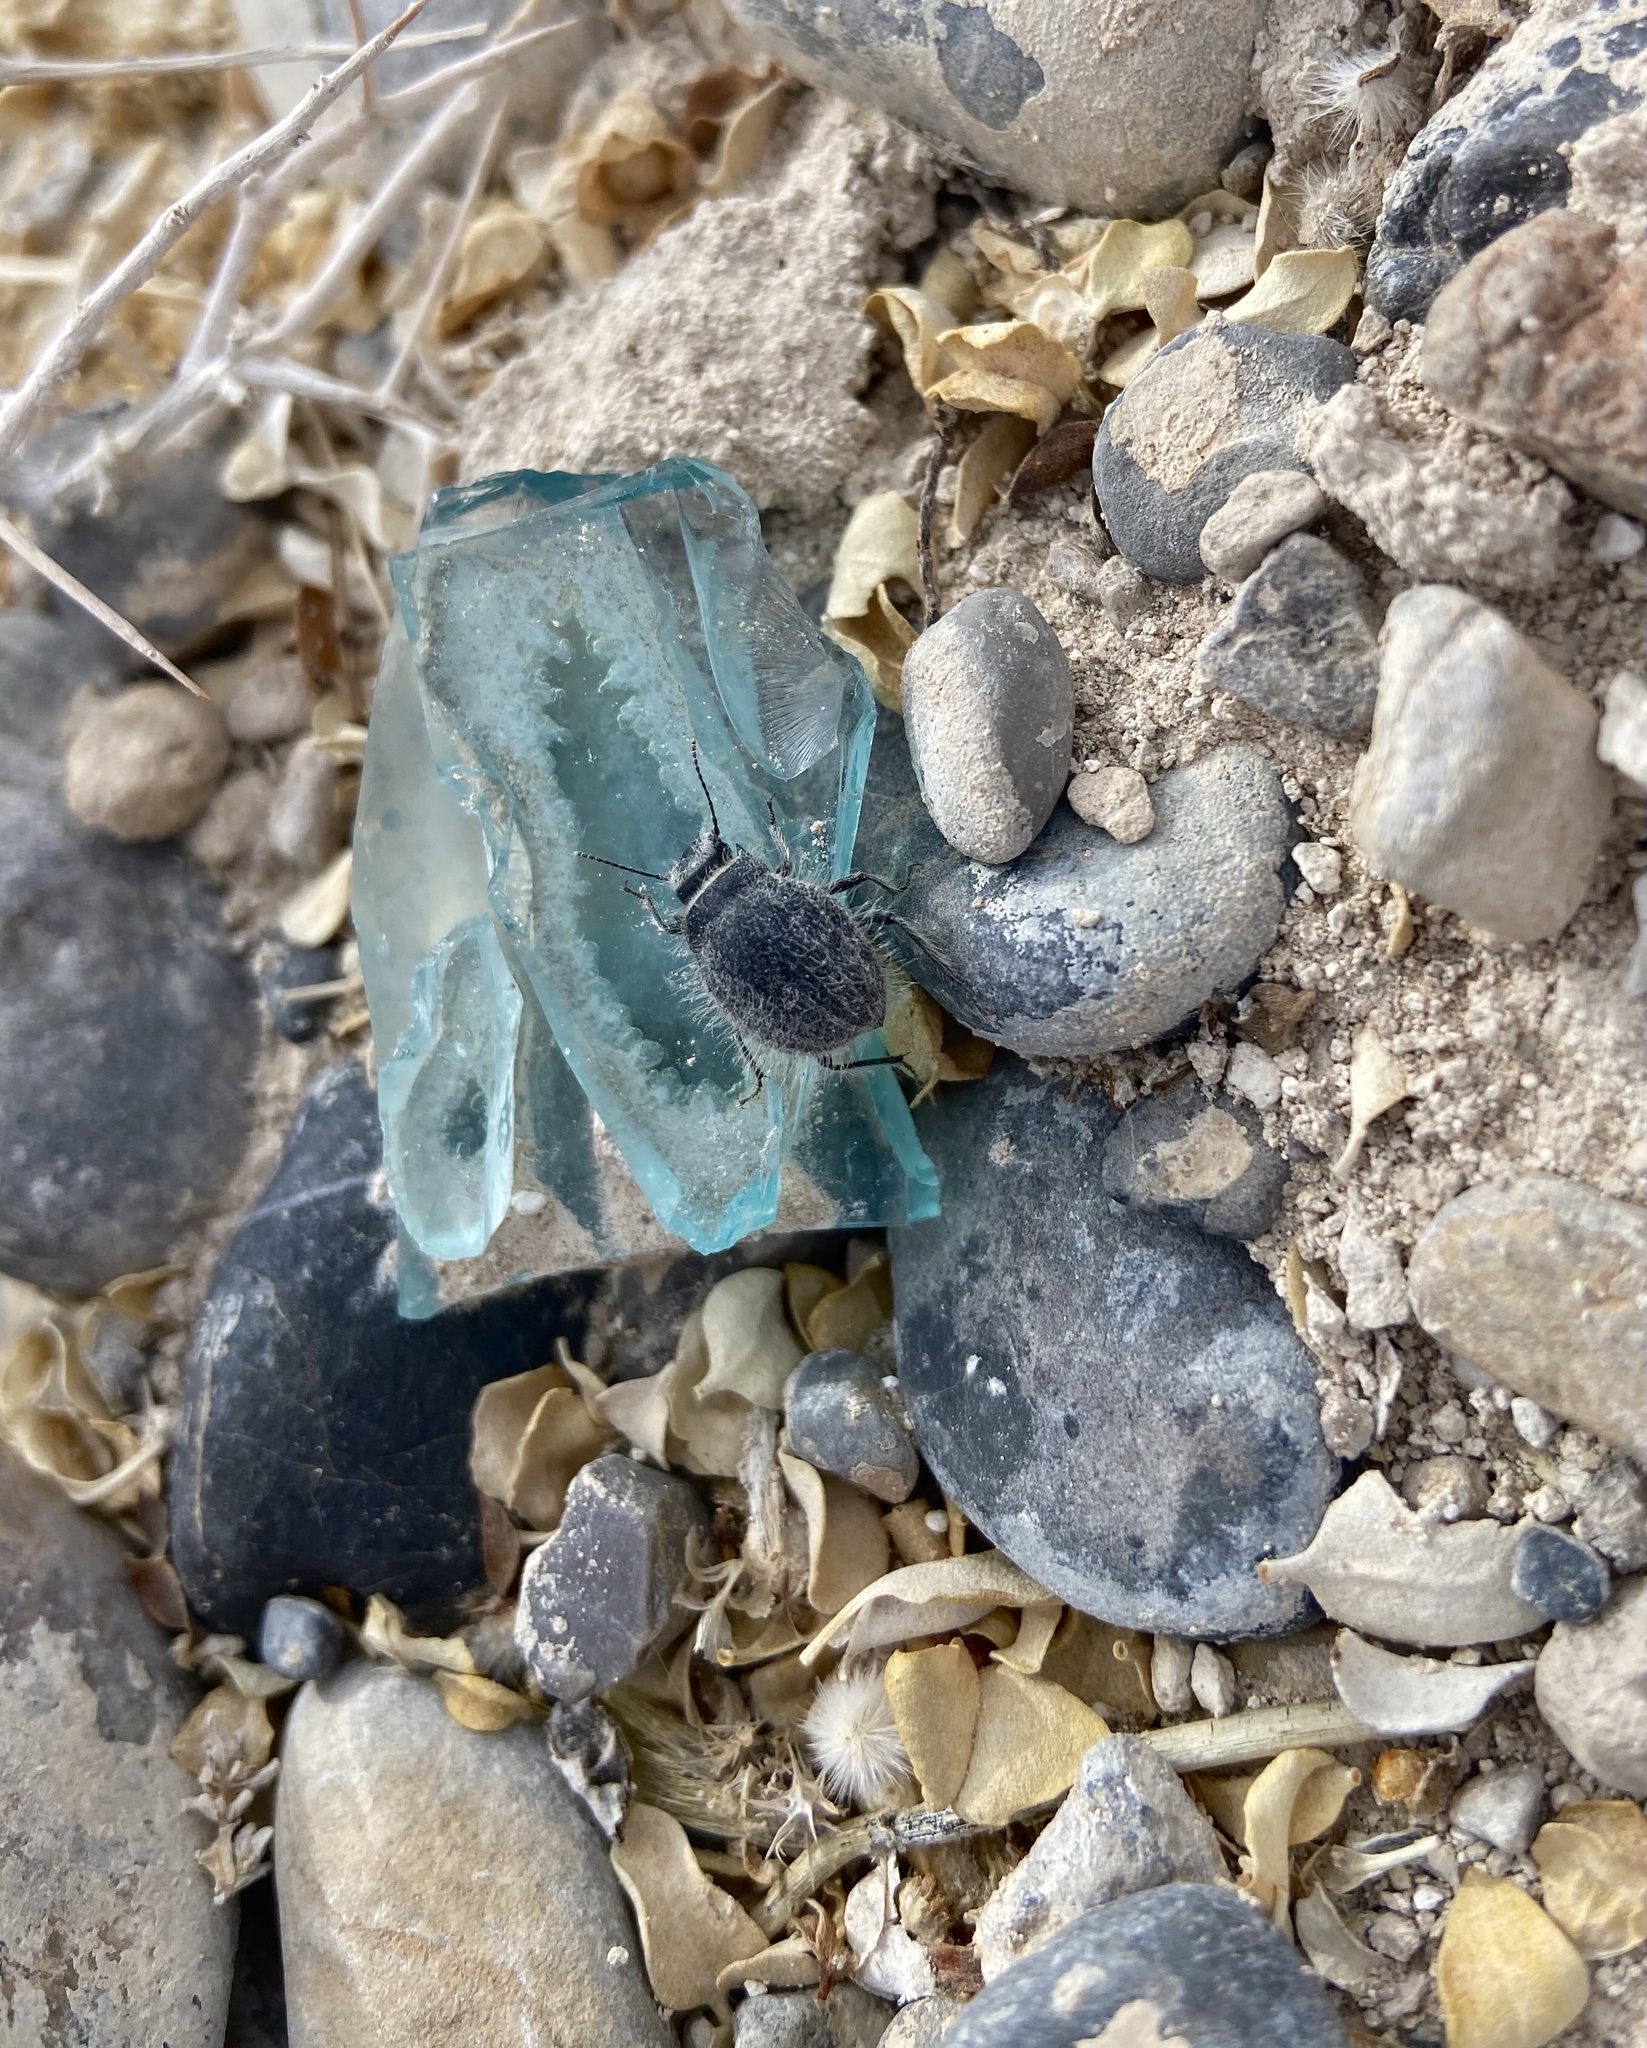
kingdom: Animalia
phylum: Arthropoda
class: Insecta
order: Coleoptera
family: Tenebrionidae
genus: Edrotes
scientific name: Edrotes ventricosus
